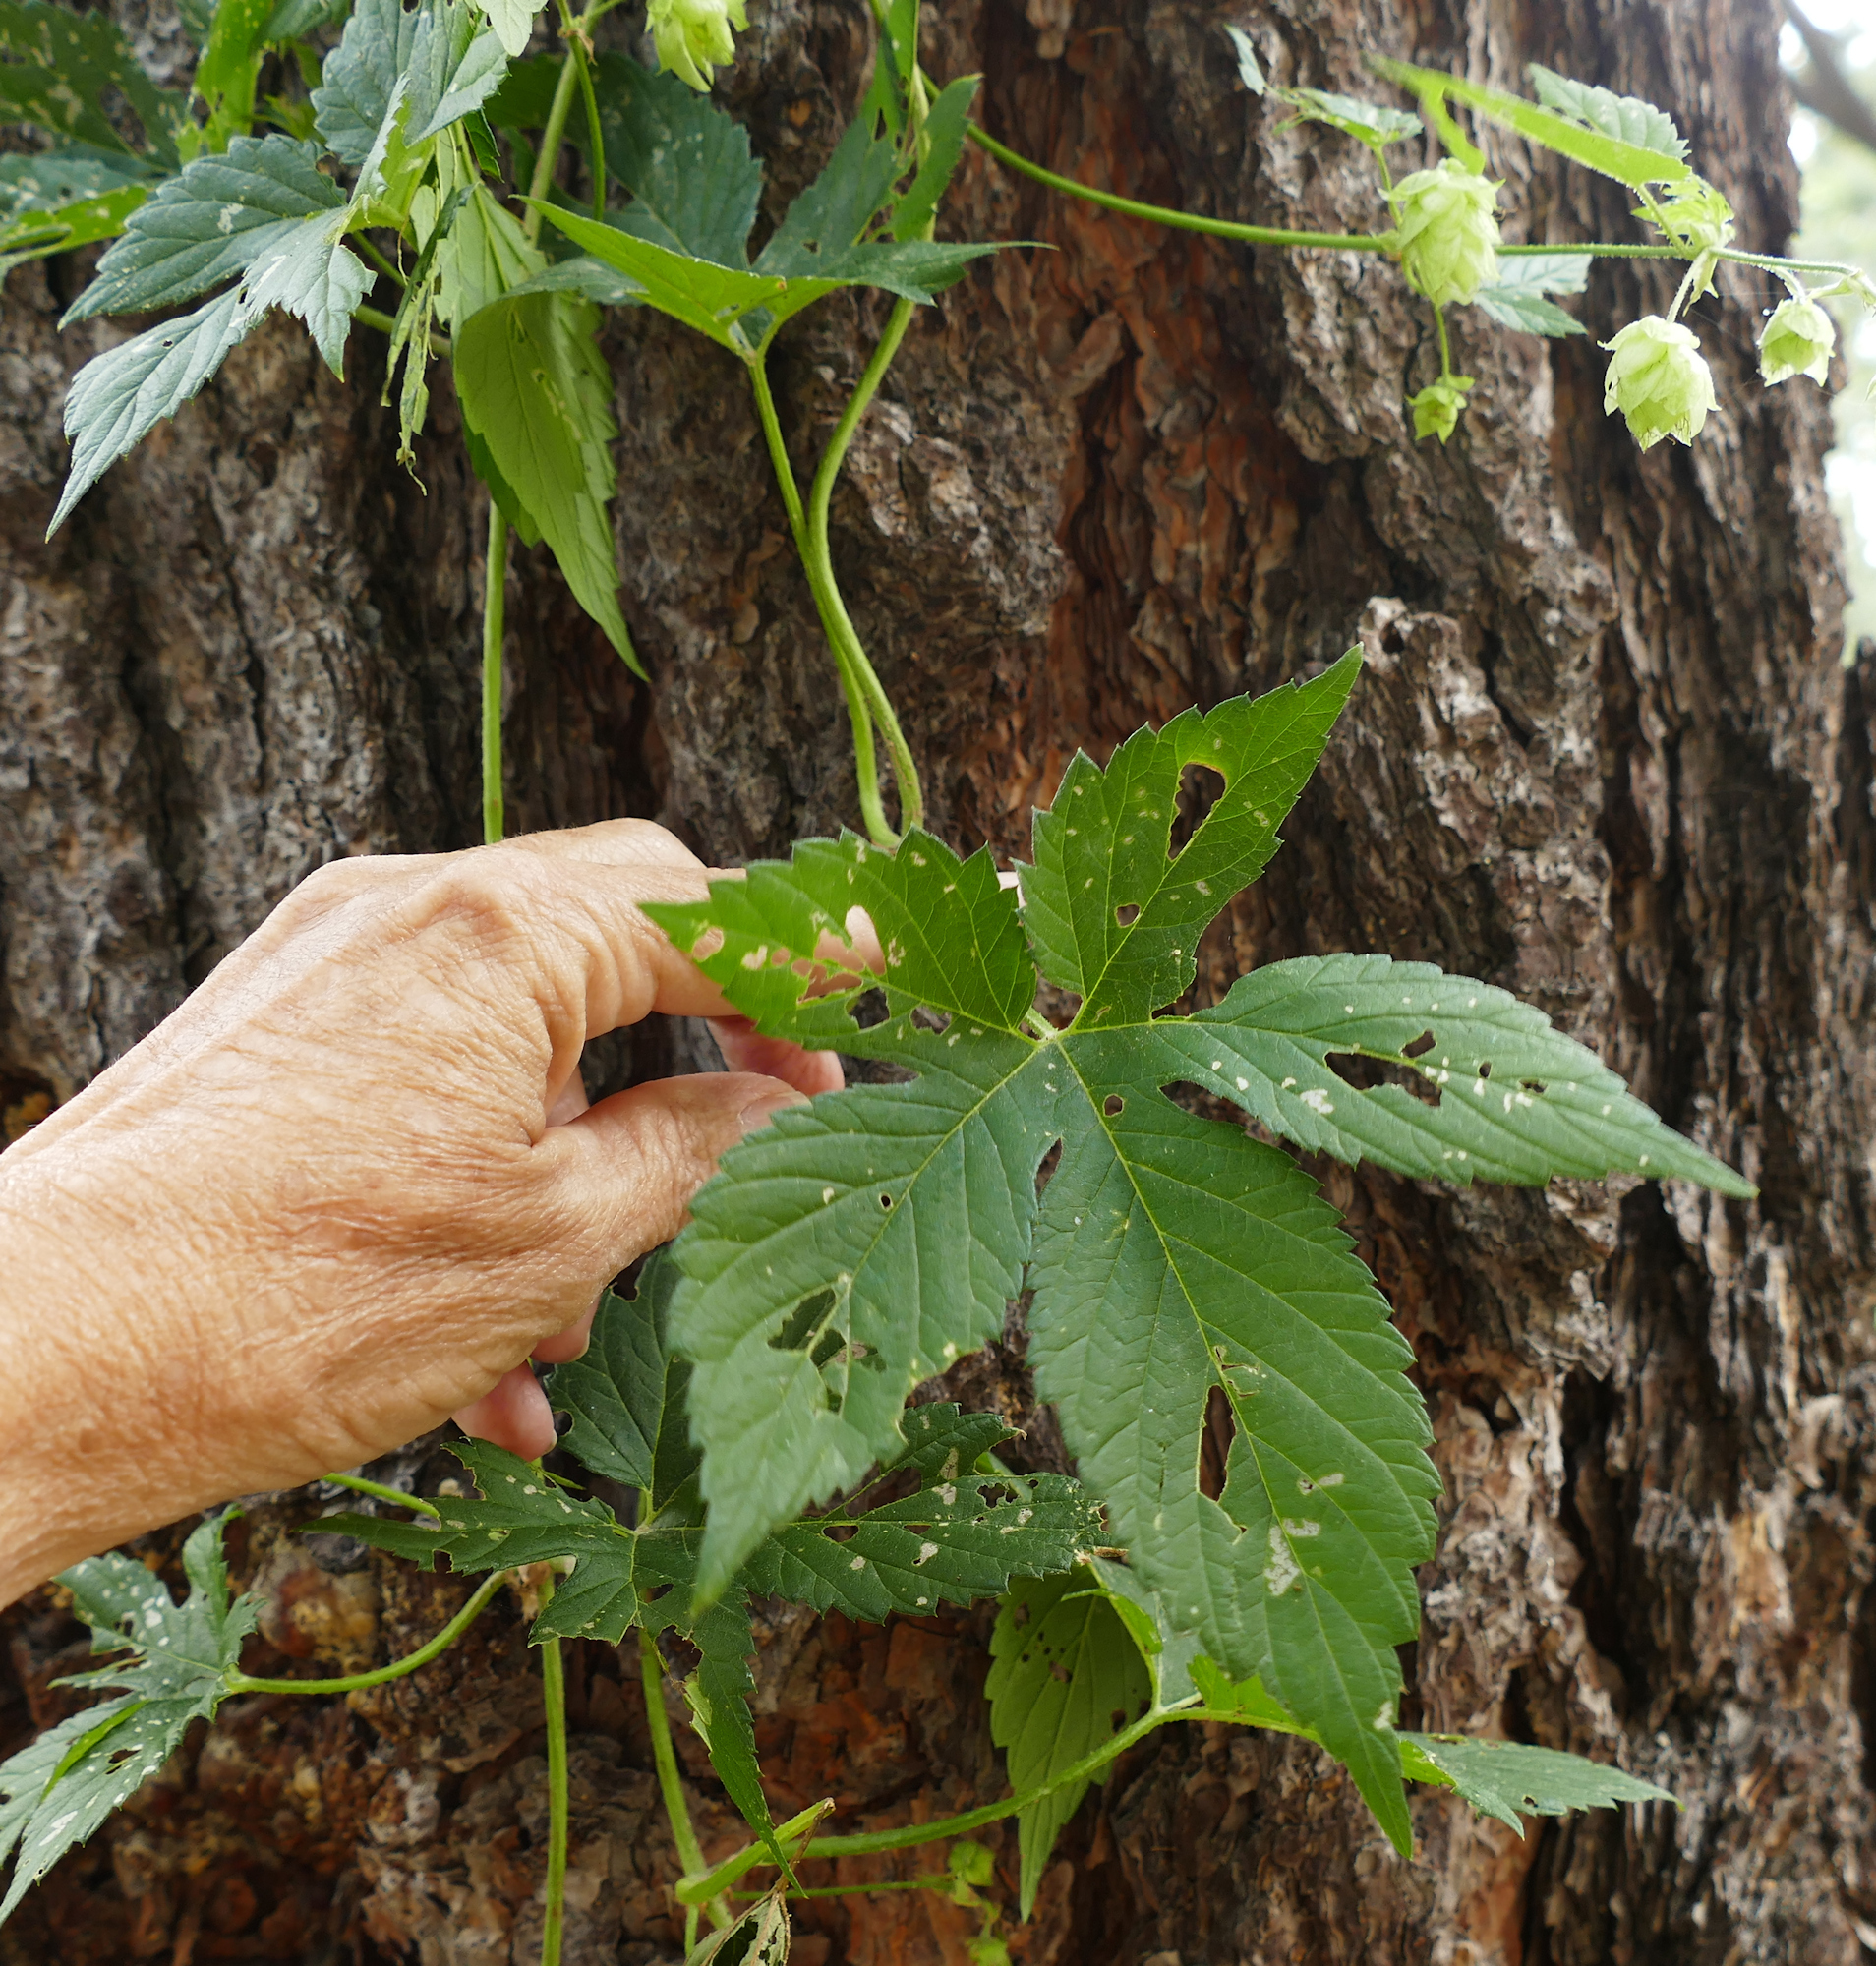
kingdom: Plantae
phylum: Tracheophyta
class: Magnoliopsida
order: Rosales
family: Cannabaceae
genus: Humulus
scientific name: Humulus lupulus
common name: Hop
